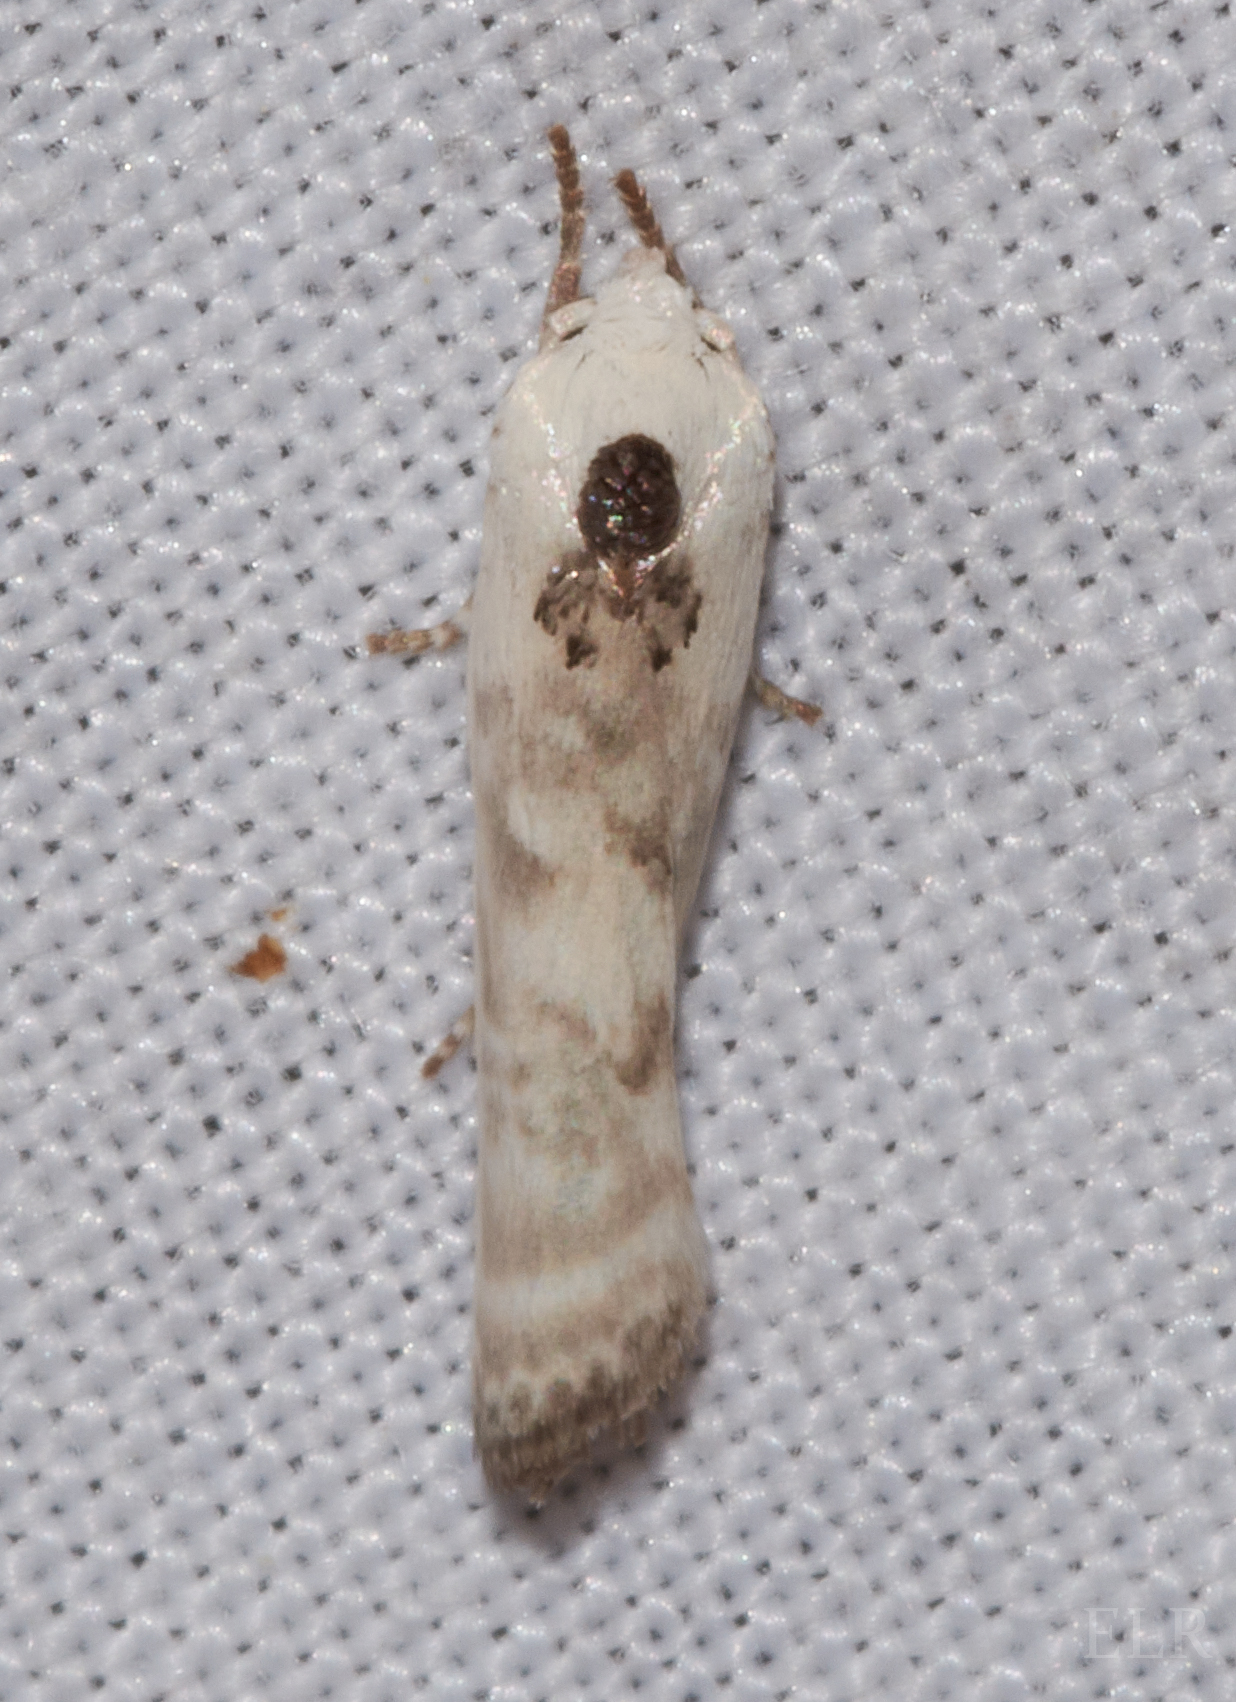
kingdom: Animalia
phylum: Arthropoda
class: Insecta
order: Lepidoptera
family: Depressariidae
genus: Antaeotricha
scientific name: Antaeotricha schlaegeri
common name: Schlaeger's fruitworm moth
